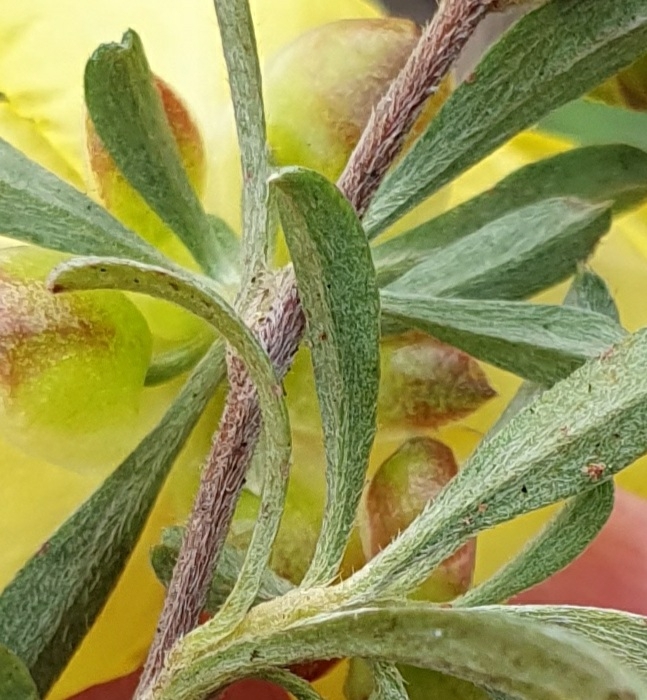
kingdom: Plantae
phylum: Tracheophyta
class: Magnoliopsida
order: Dilleniales
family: Dilleniaceae
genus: Hibbertia
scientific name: Hibbertia obtusifolia
